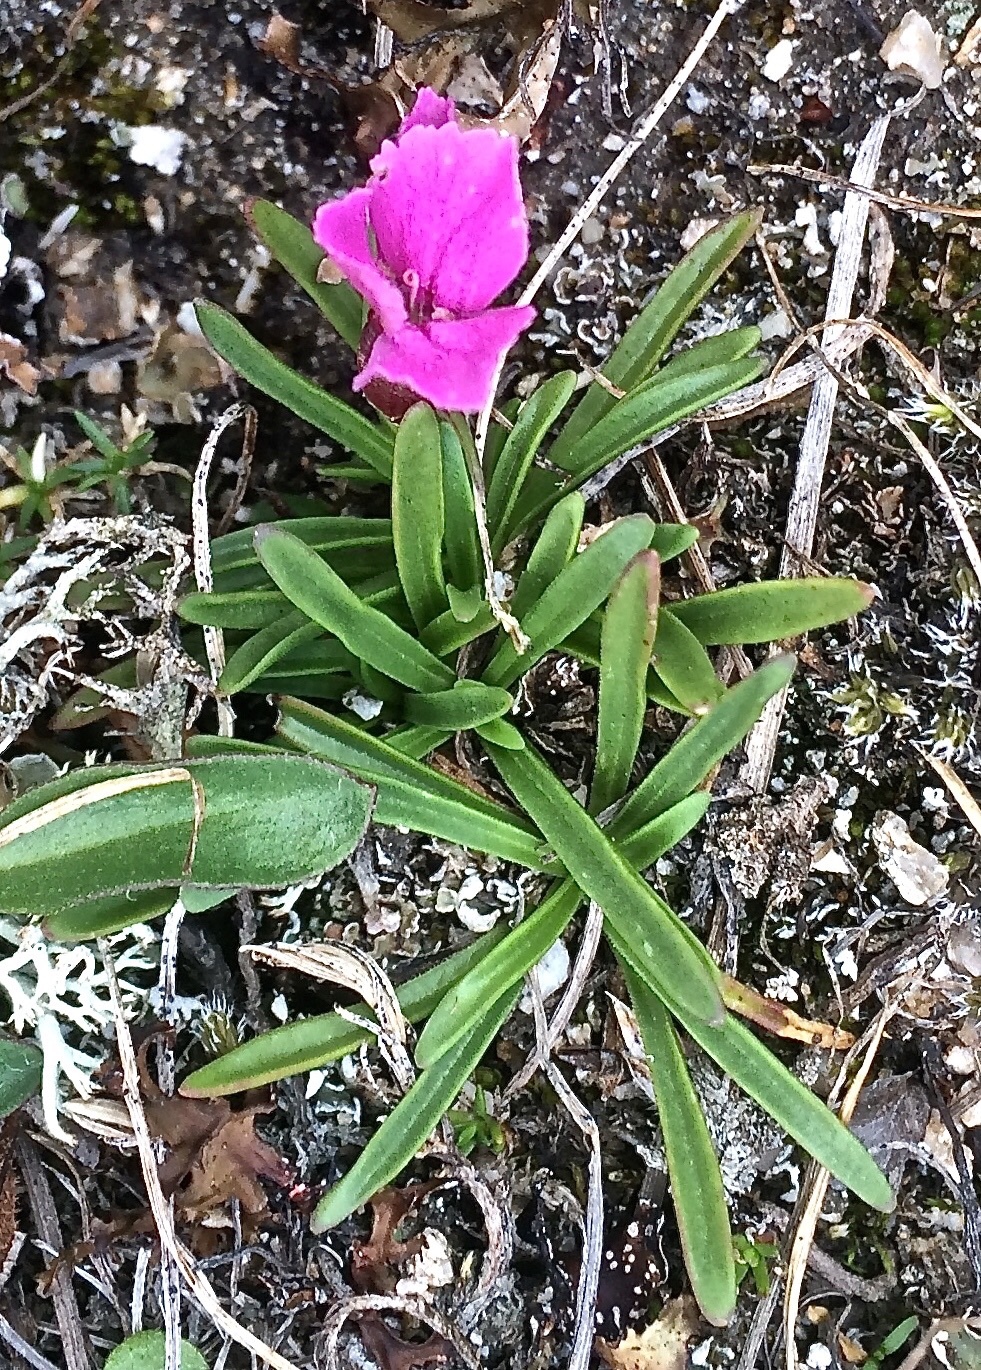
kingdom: Plantae
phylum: Tracheophyta
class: Magnoliopsida
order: Caryophyllales
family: Caryophyllaceae
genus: Dianthus
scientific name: Dianthus glacialis
